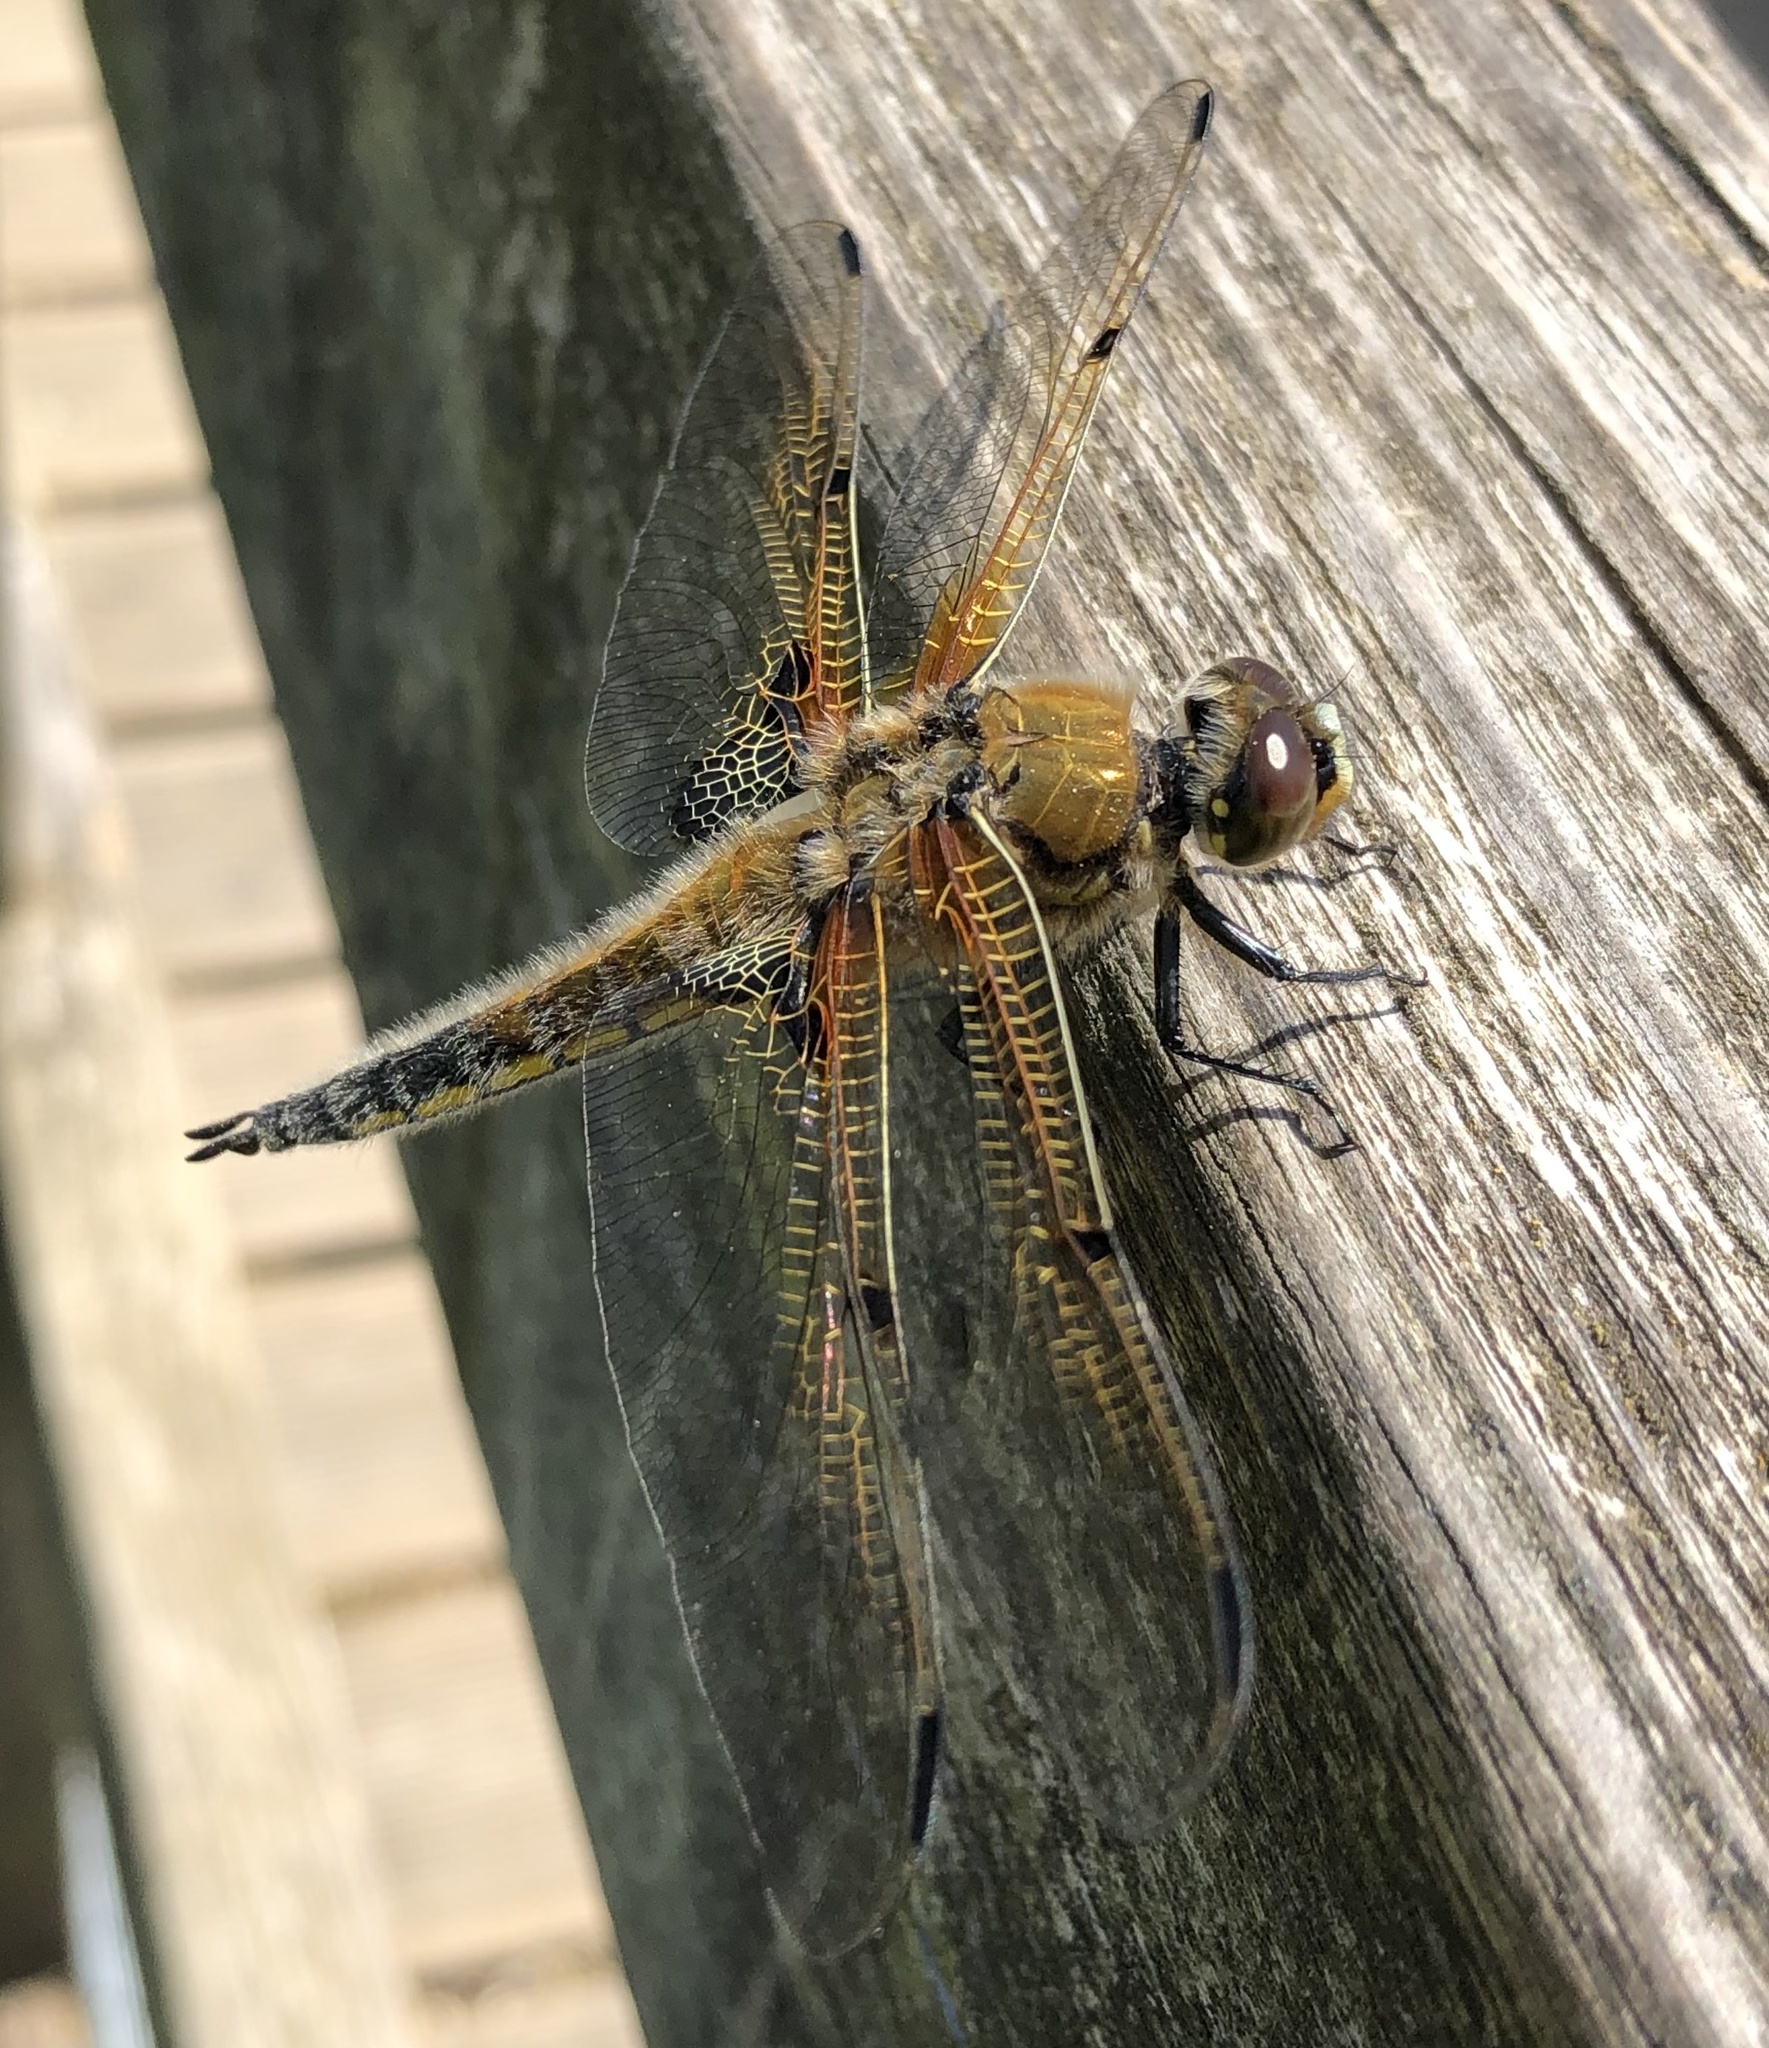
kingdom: Animalia
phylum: Arthropoda
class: Insecta
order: Odonata
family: Libellulidae
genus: Libellula
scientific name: Libellula quadrimaculata
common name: Four-spotted chaser
